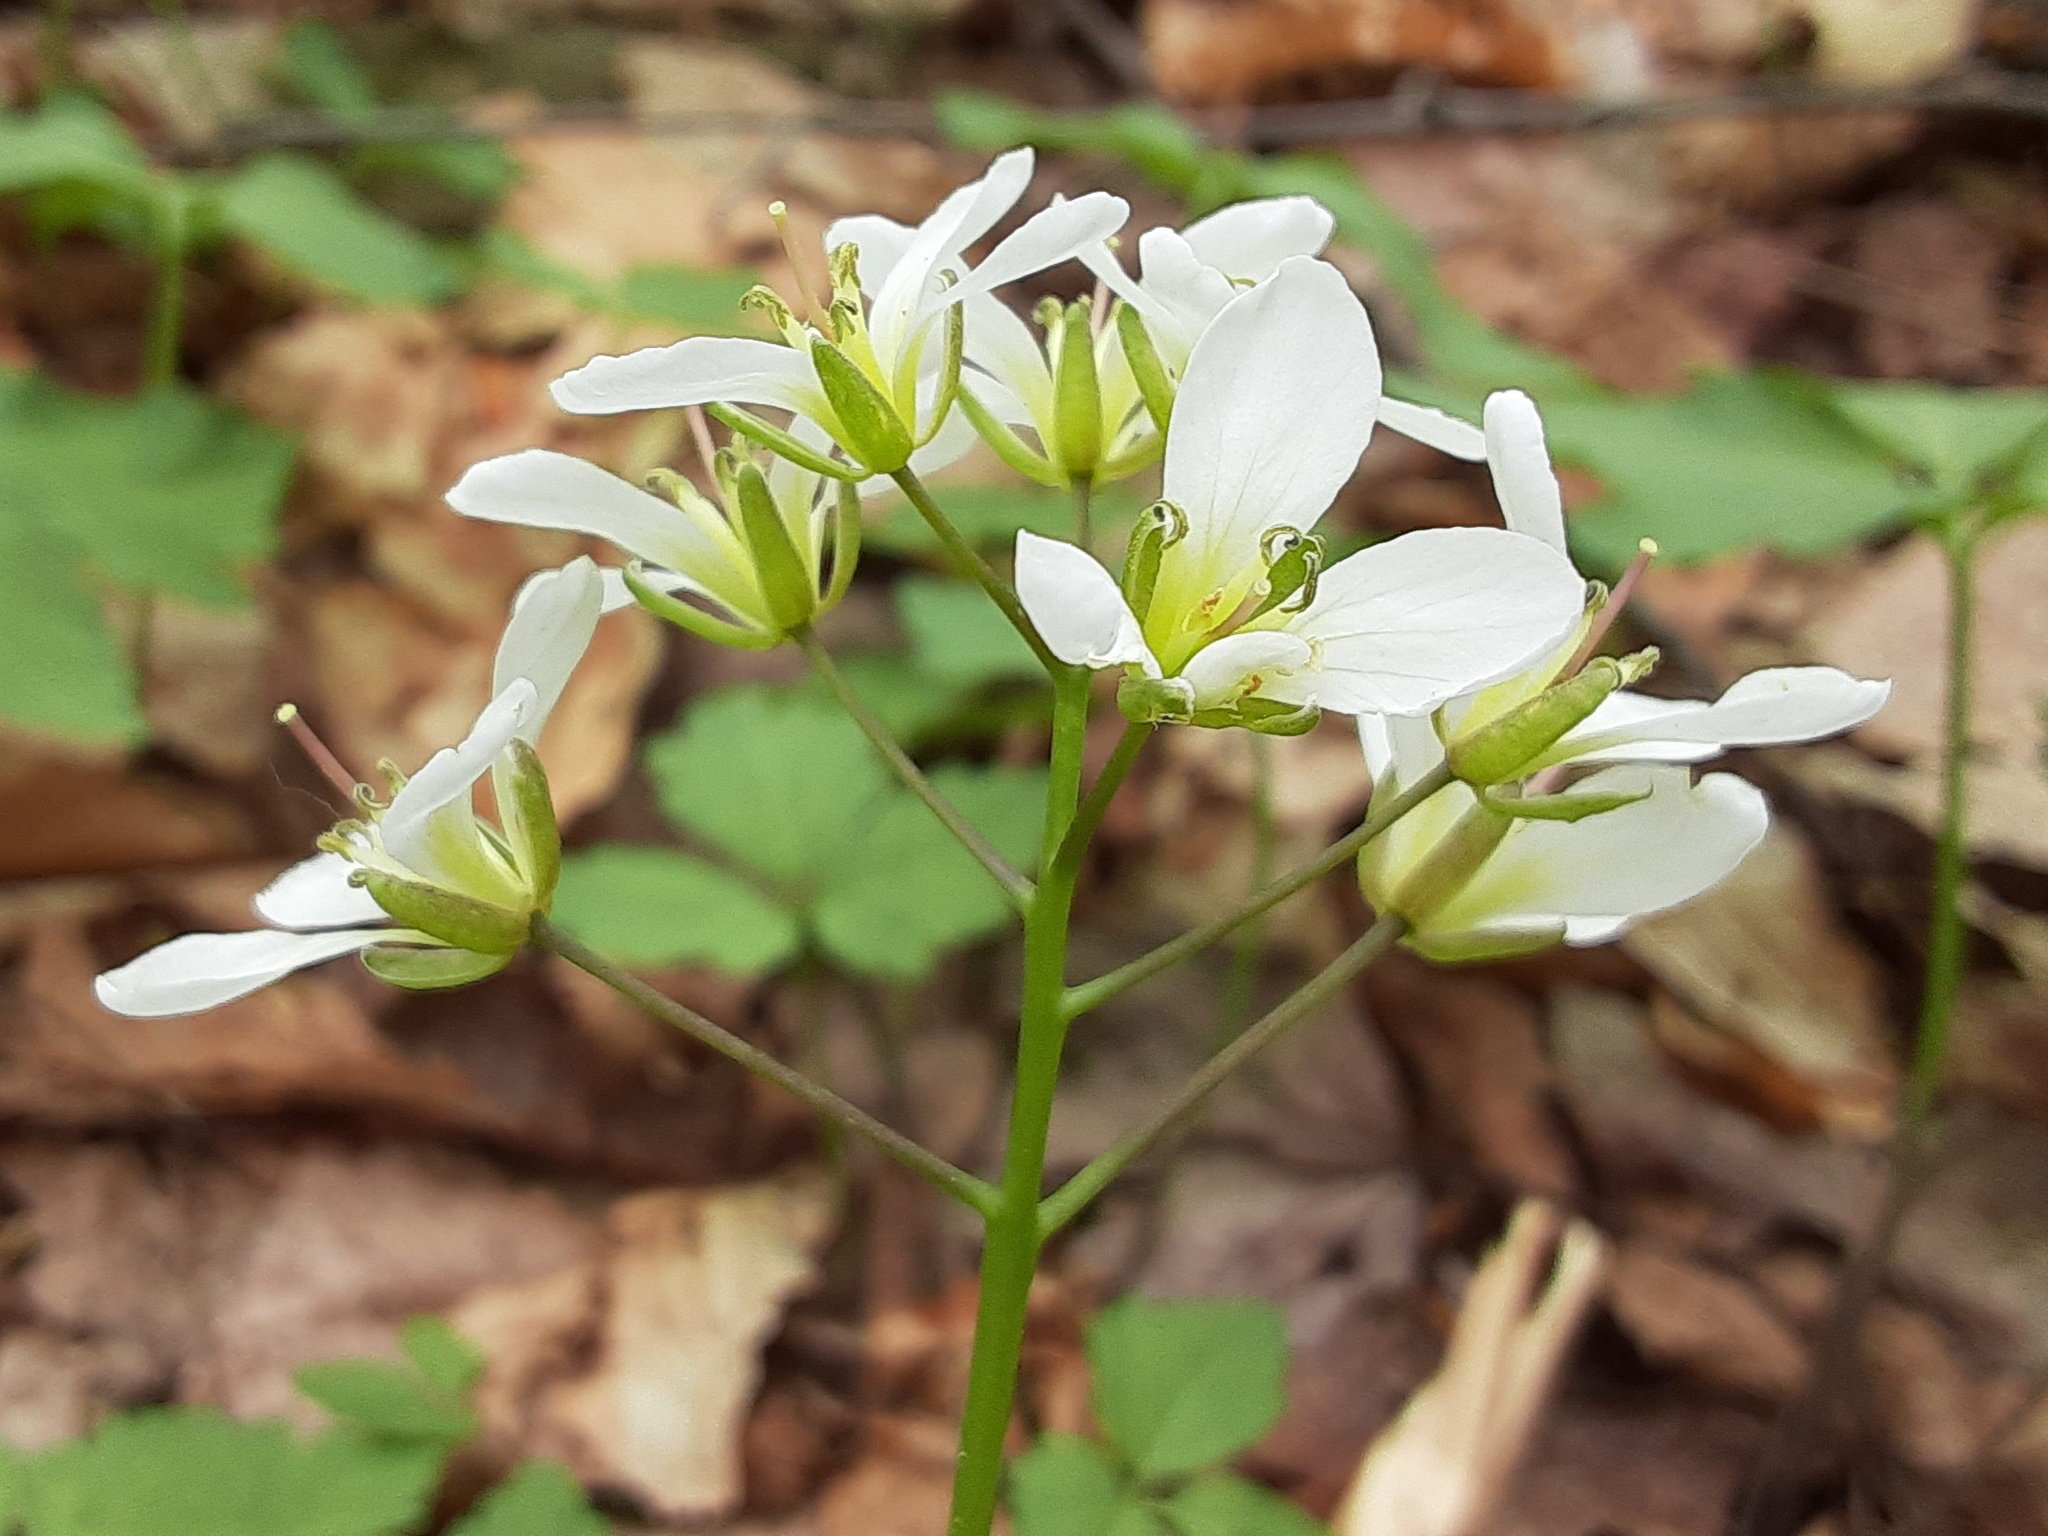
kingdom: Plantae
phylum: Tracheophyta
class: Magnoliopsida
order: Brassicales
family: Brassicaceae
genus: Cardamine
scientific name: Cardamine diphylla
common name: Broad-leaved toothwort
